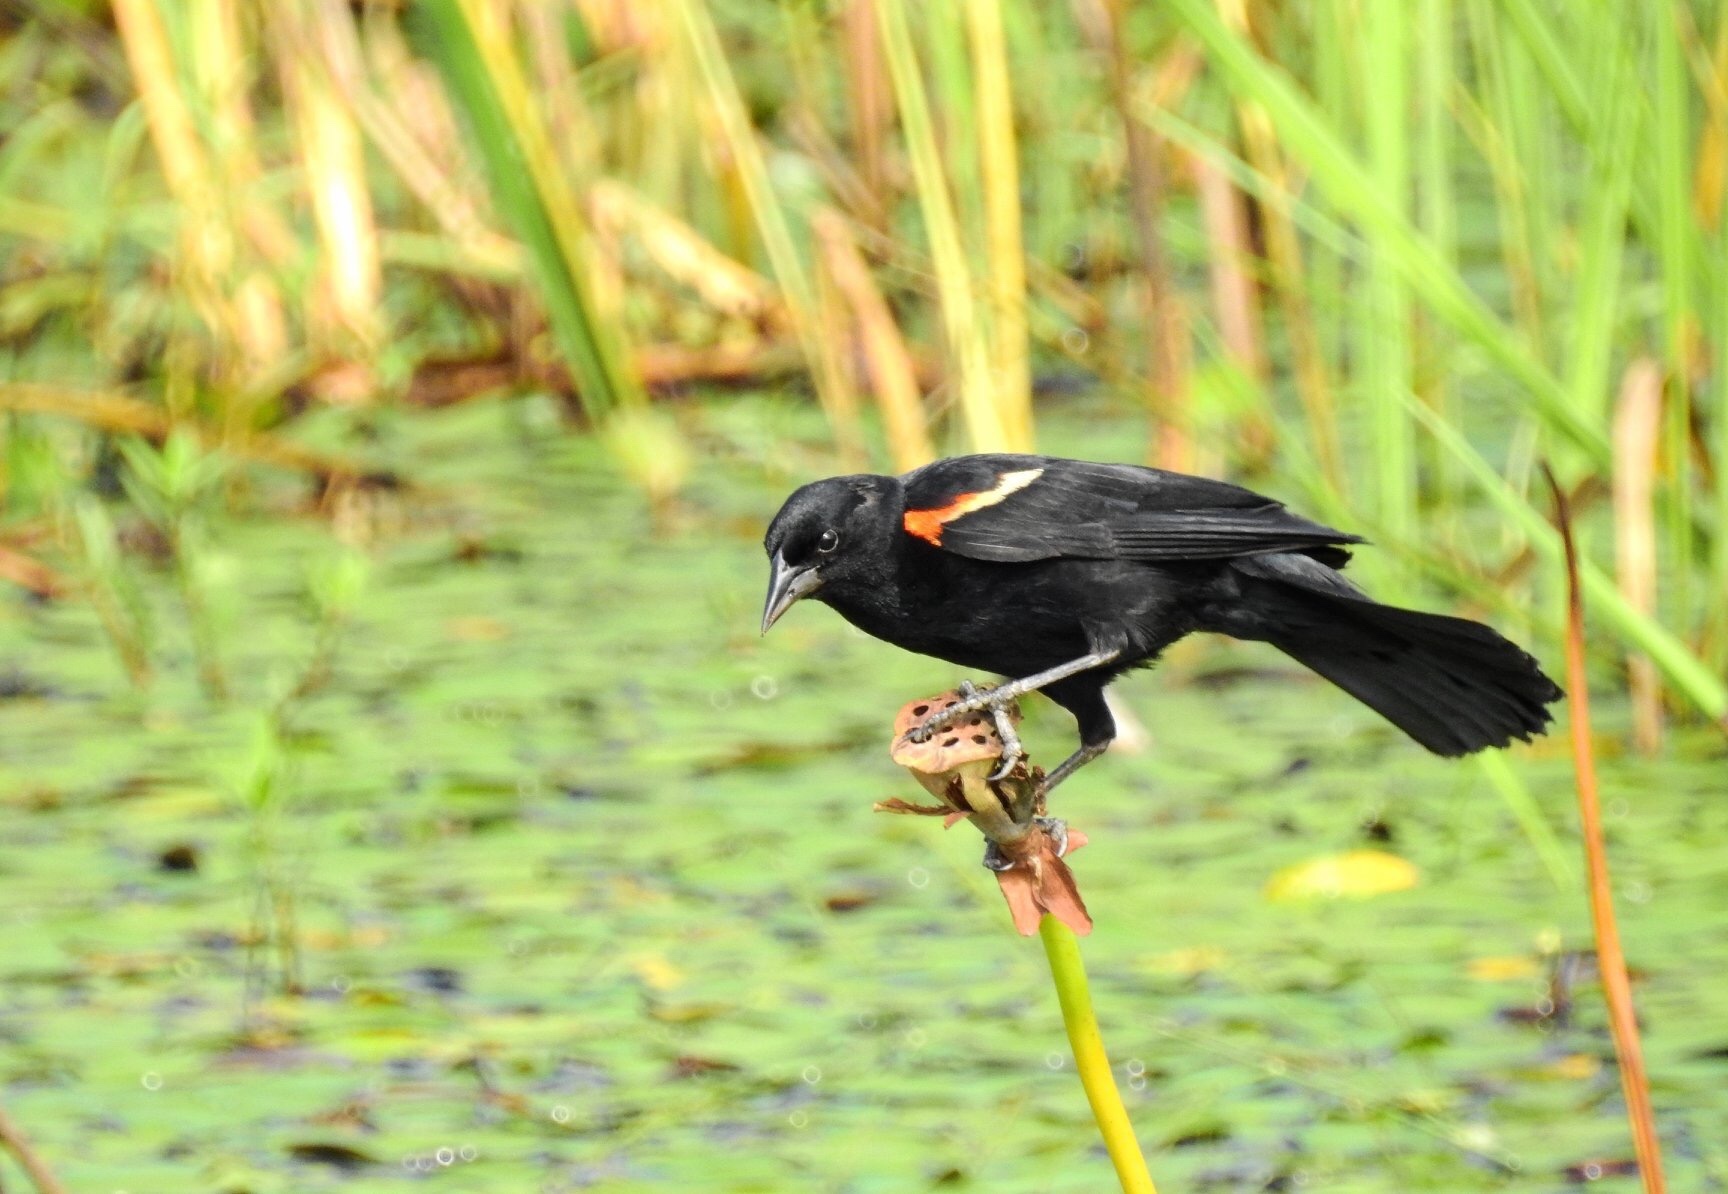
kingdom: Animalia
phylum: Chordata
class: Aves
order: Passeriformes
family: Icteridae
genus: Agelaius
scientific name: Agelaius phoeniceus
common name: Red-winged blackbird
